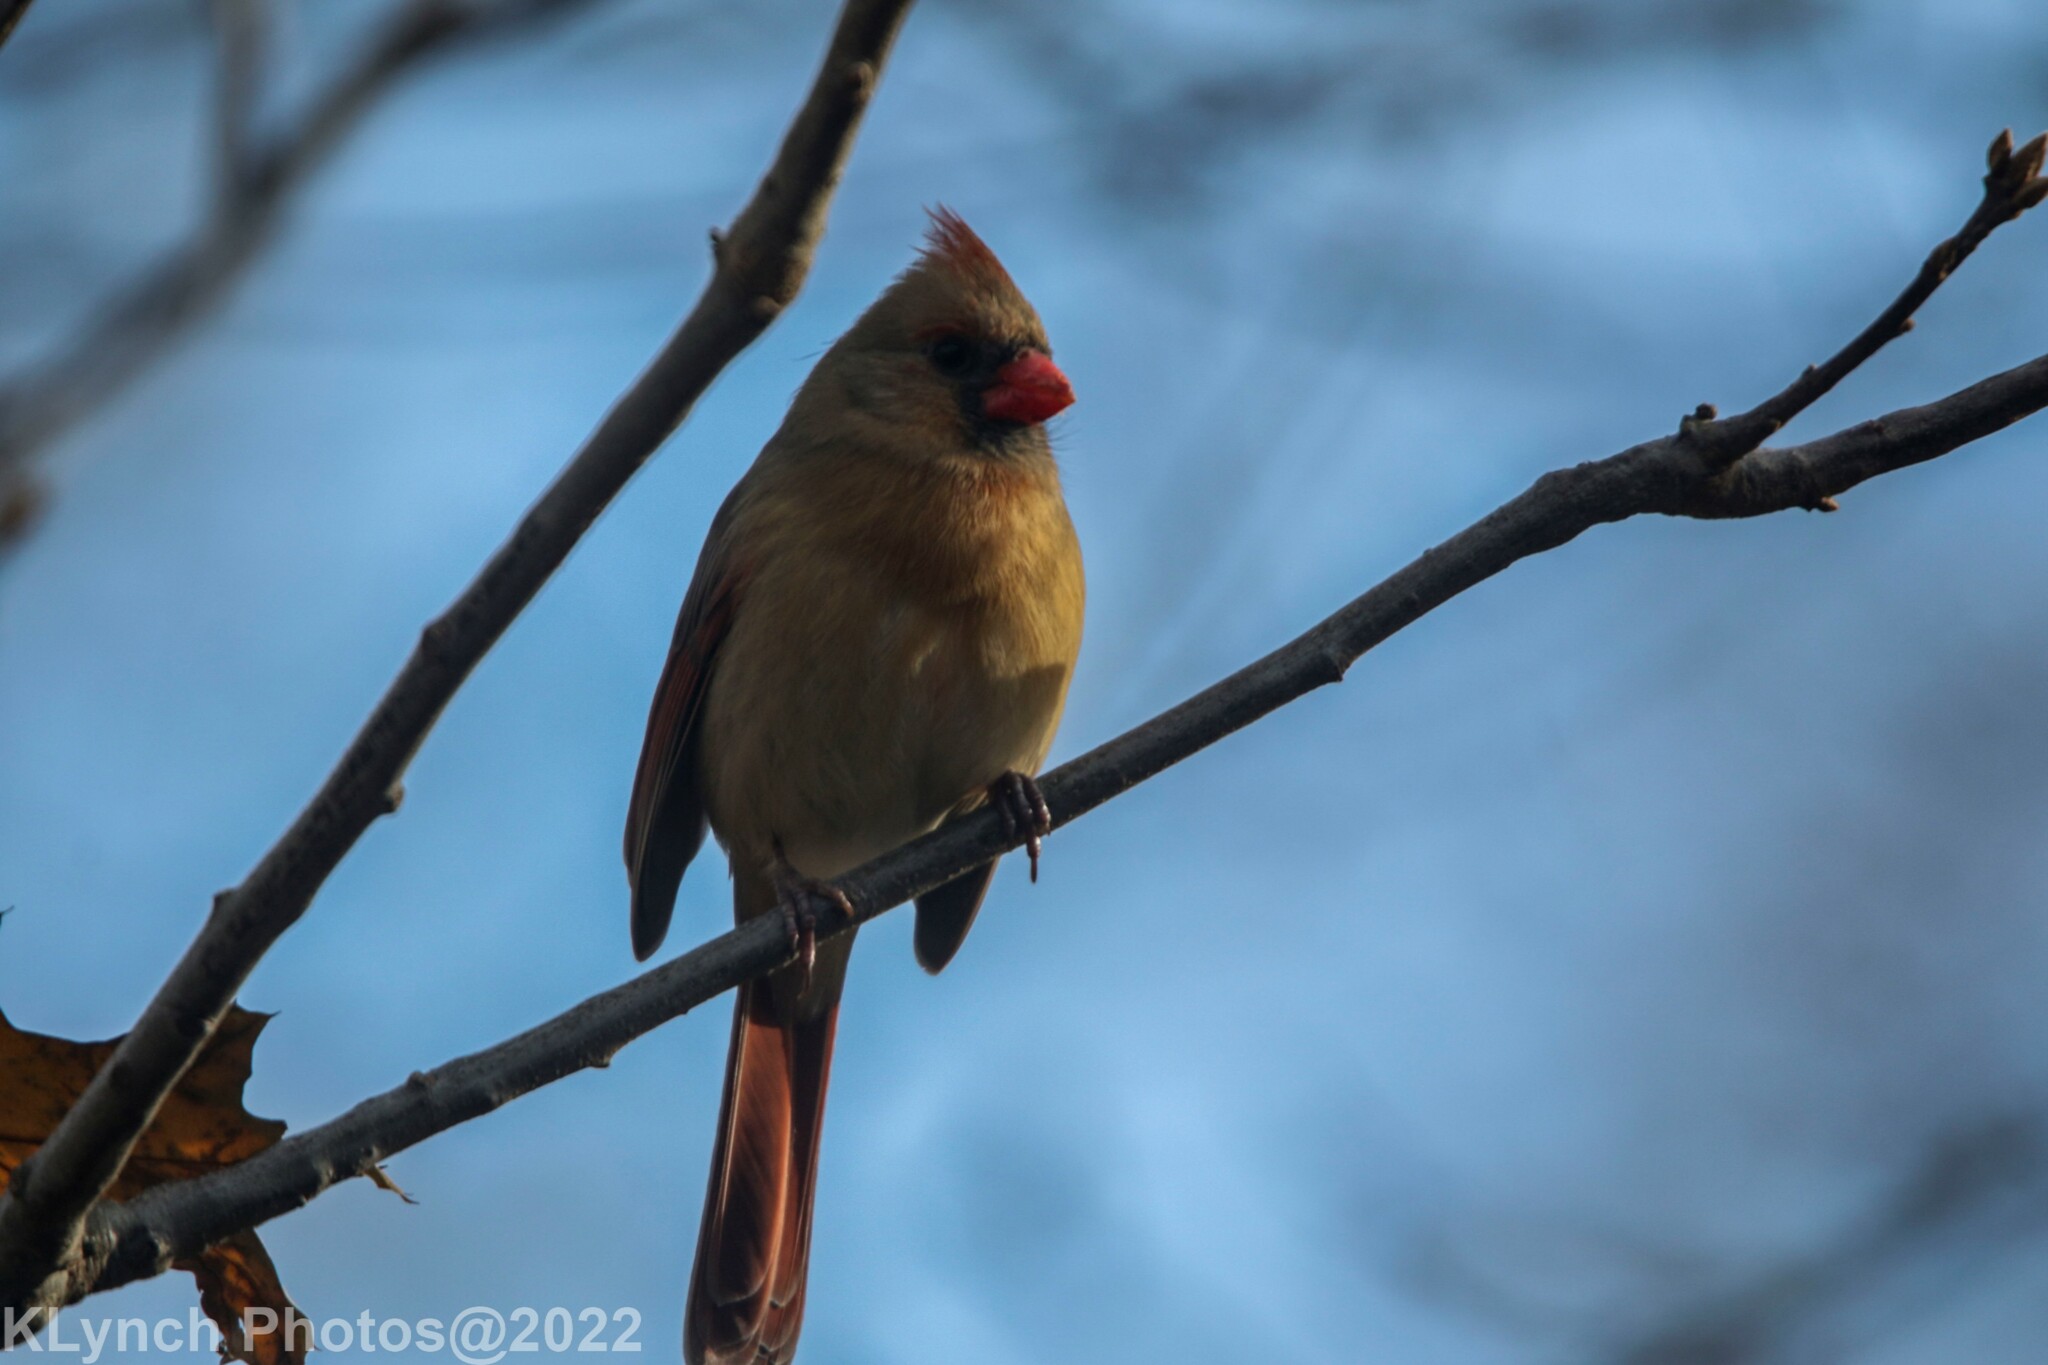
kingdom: Animalia
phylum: Chordata
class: Aves
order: Passeriformes
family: Cardinalidae
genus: Cardinalis
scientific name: Cardinalis cardinalis
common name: Northern cardinal
